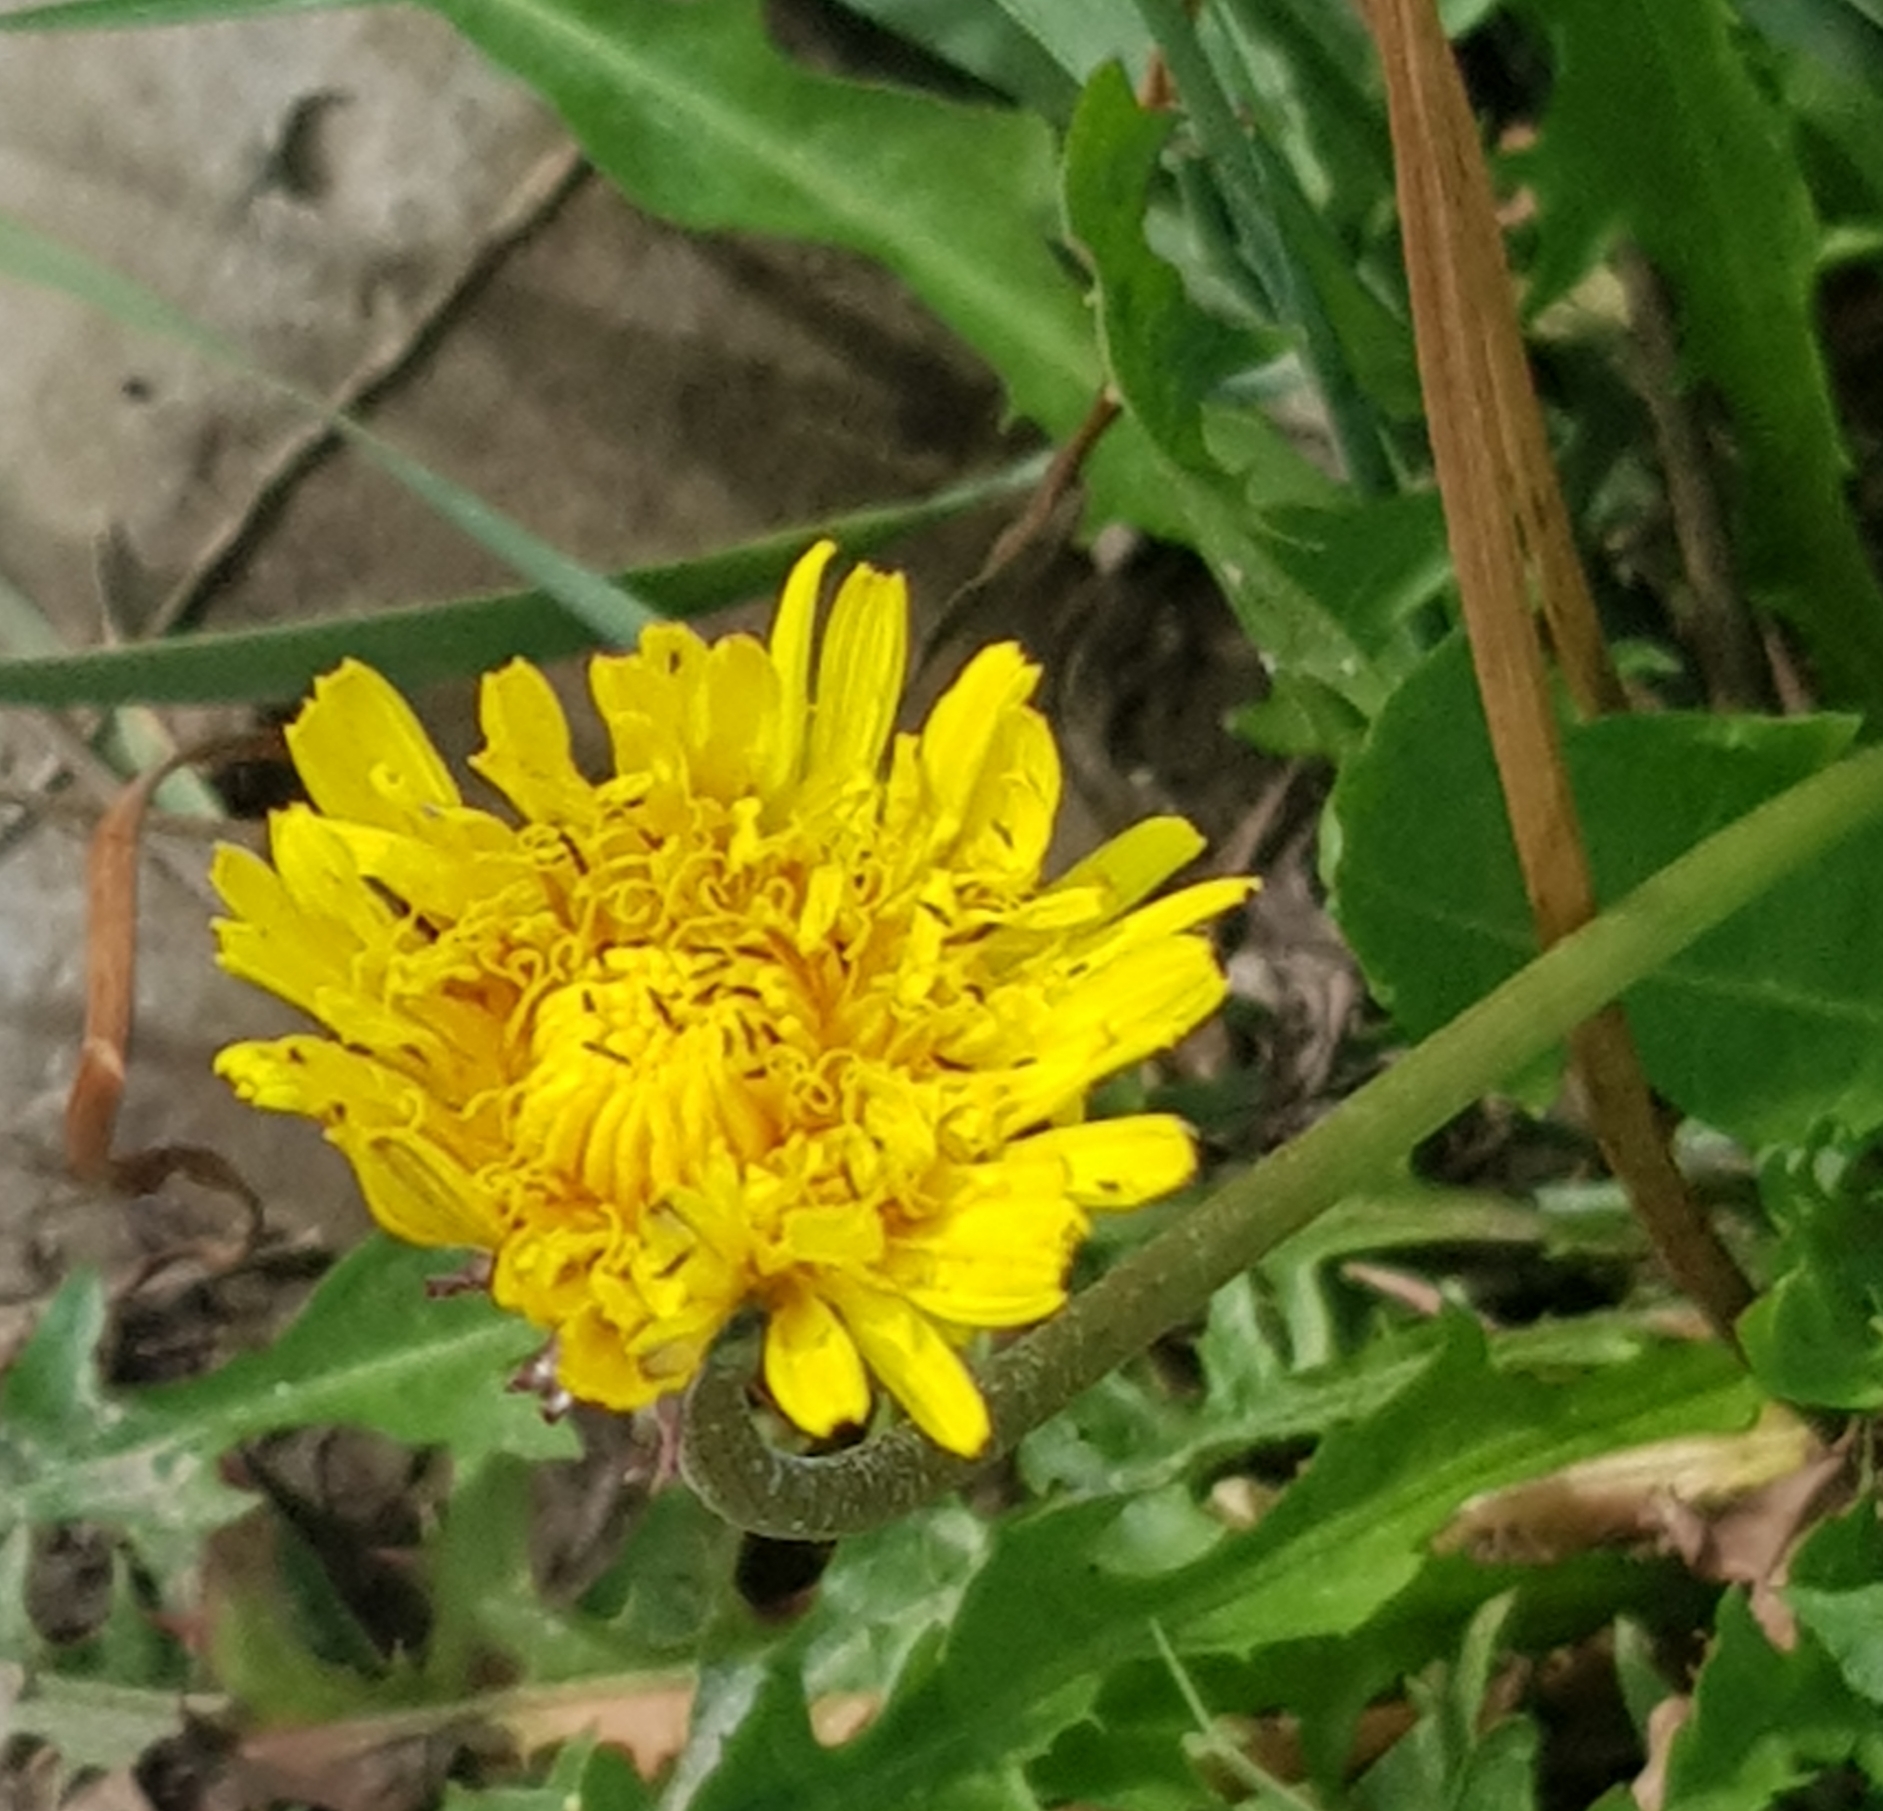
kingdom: Plantae
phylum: Tracheophyta
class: Magnoliopsida
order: Asterales
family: Asteraceae
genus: Taraxacum
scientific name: Taraxacum officinale
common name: Common dandelion
